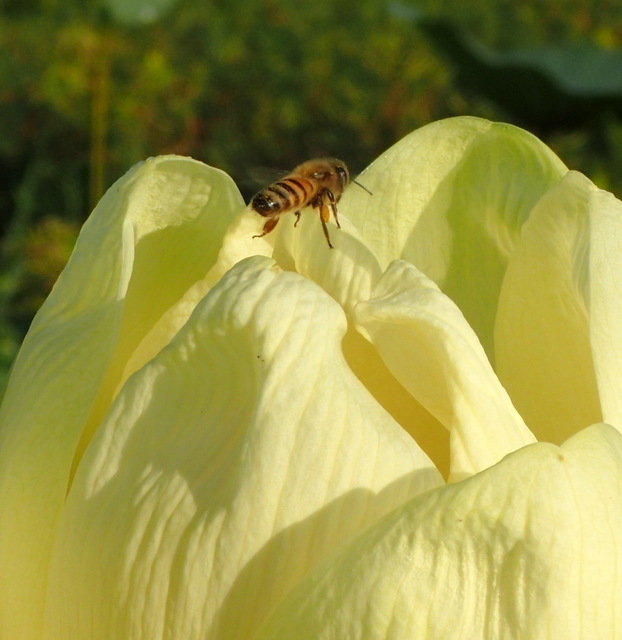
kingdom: Animalia
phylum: Arthropoda
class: Insecta
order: Hymenoptera
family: Apidae
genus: Apis
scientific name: Apis mellifera
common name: Honey bee
